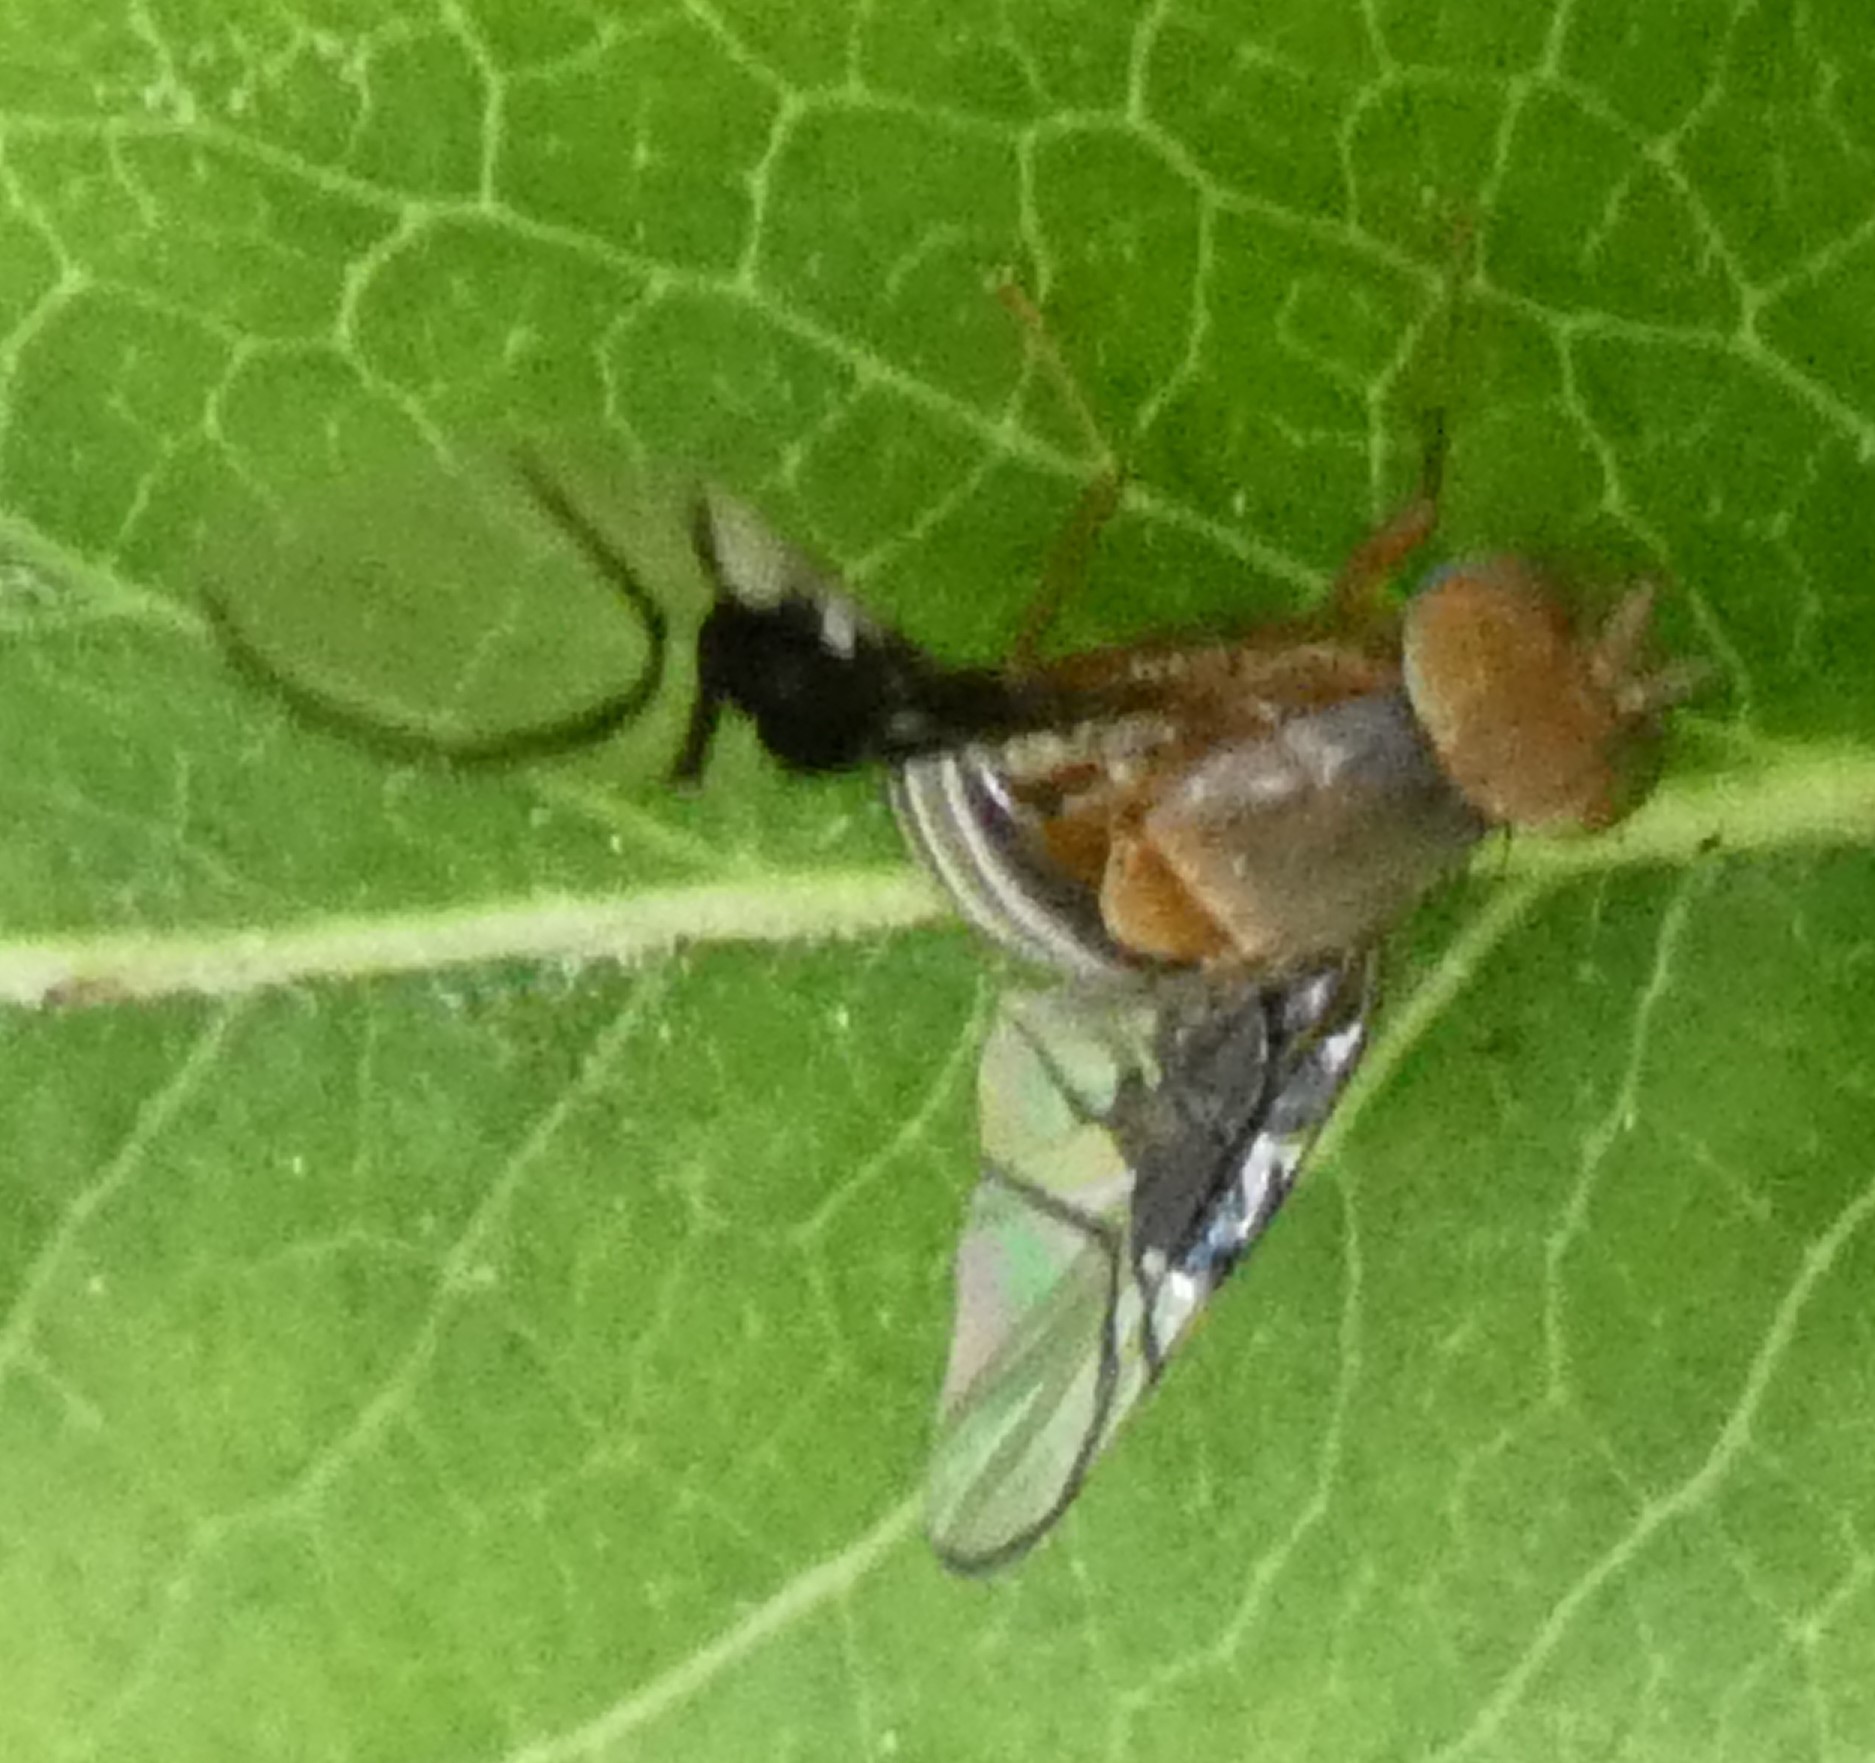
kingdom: Animalia
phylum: Arthropoda
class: Insecta
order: Diptera
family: Tephritidae
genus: Anomoia
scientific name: Anomoia purmunda
